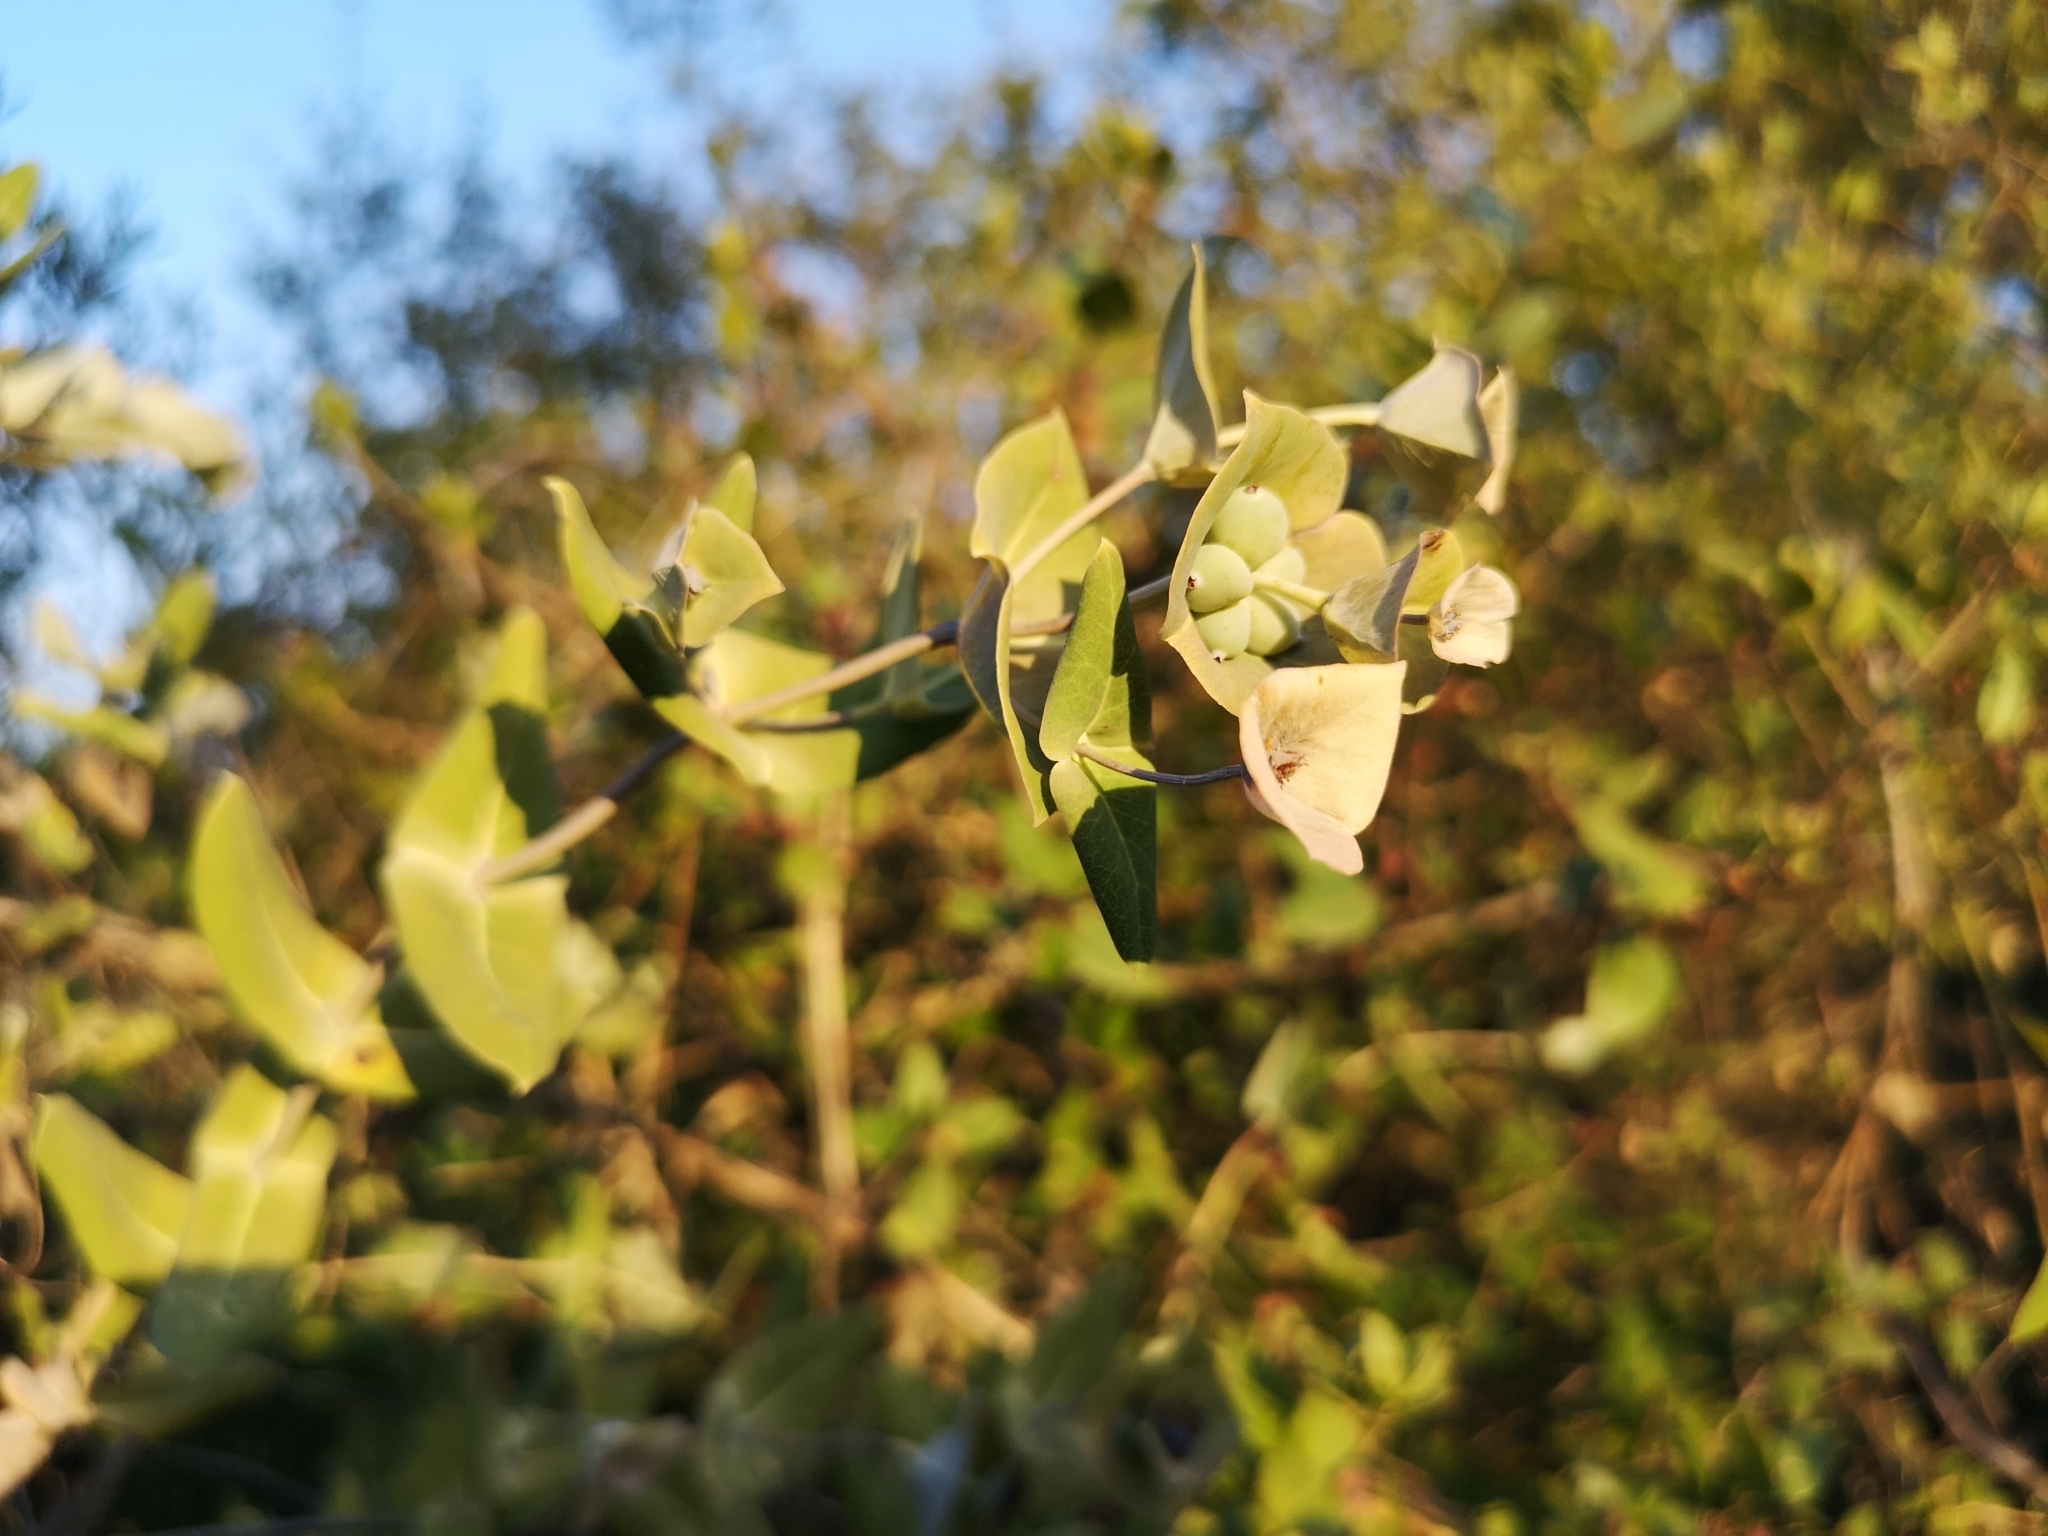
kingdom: Plantae
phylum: Tracheophyta
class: Magnoliopsida
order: Dipsacales
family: Caprifoliaceae
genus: Lonicera
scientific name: Lonicera implexa
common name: Minorca honeysuckle
